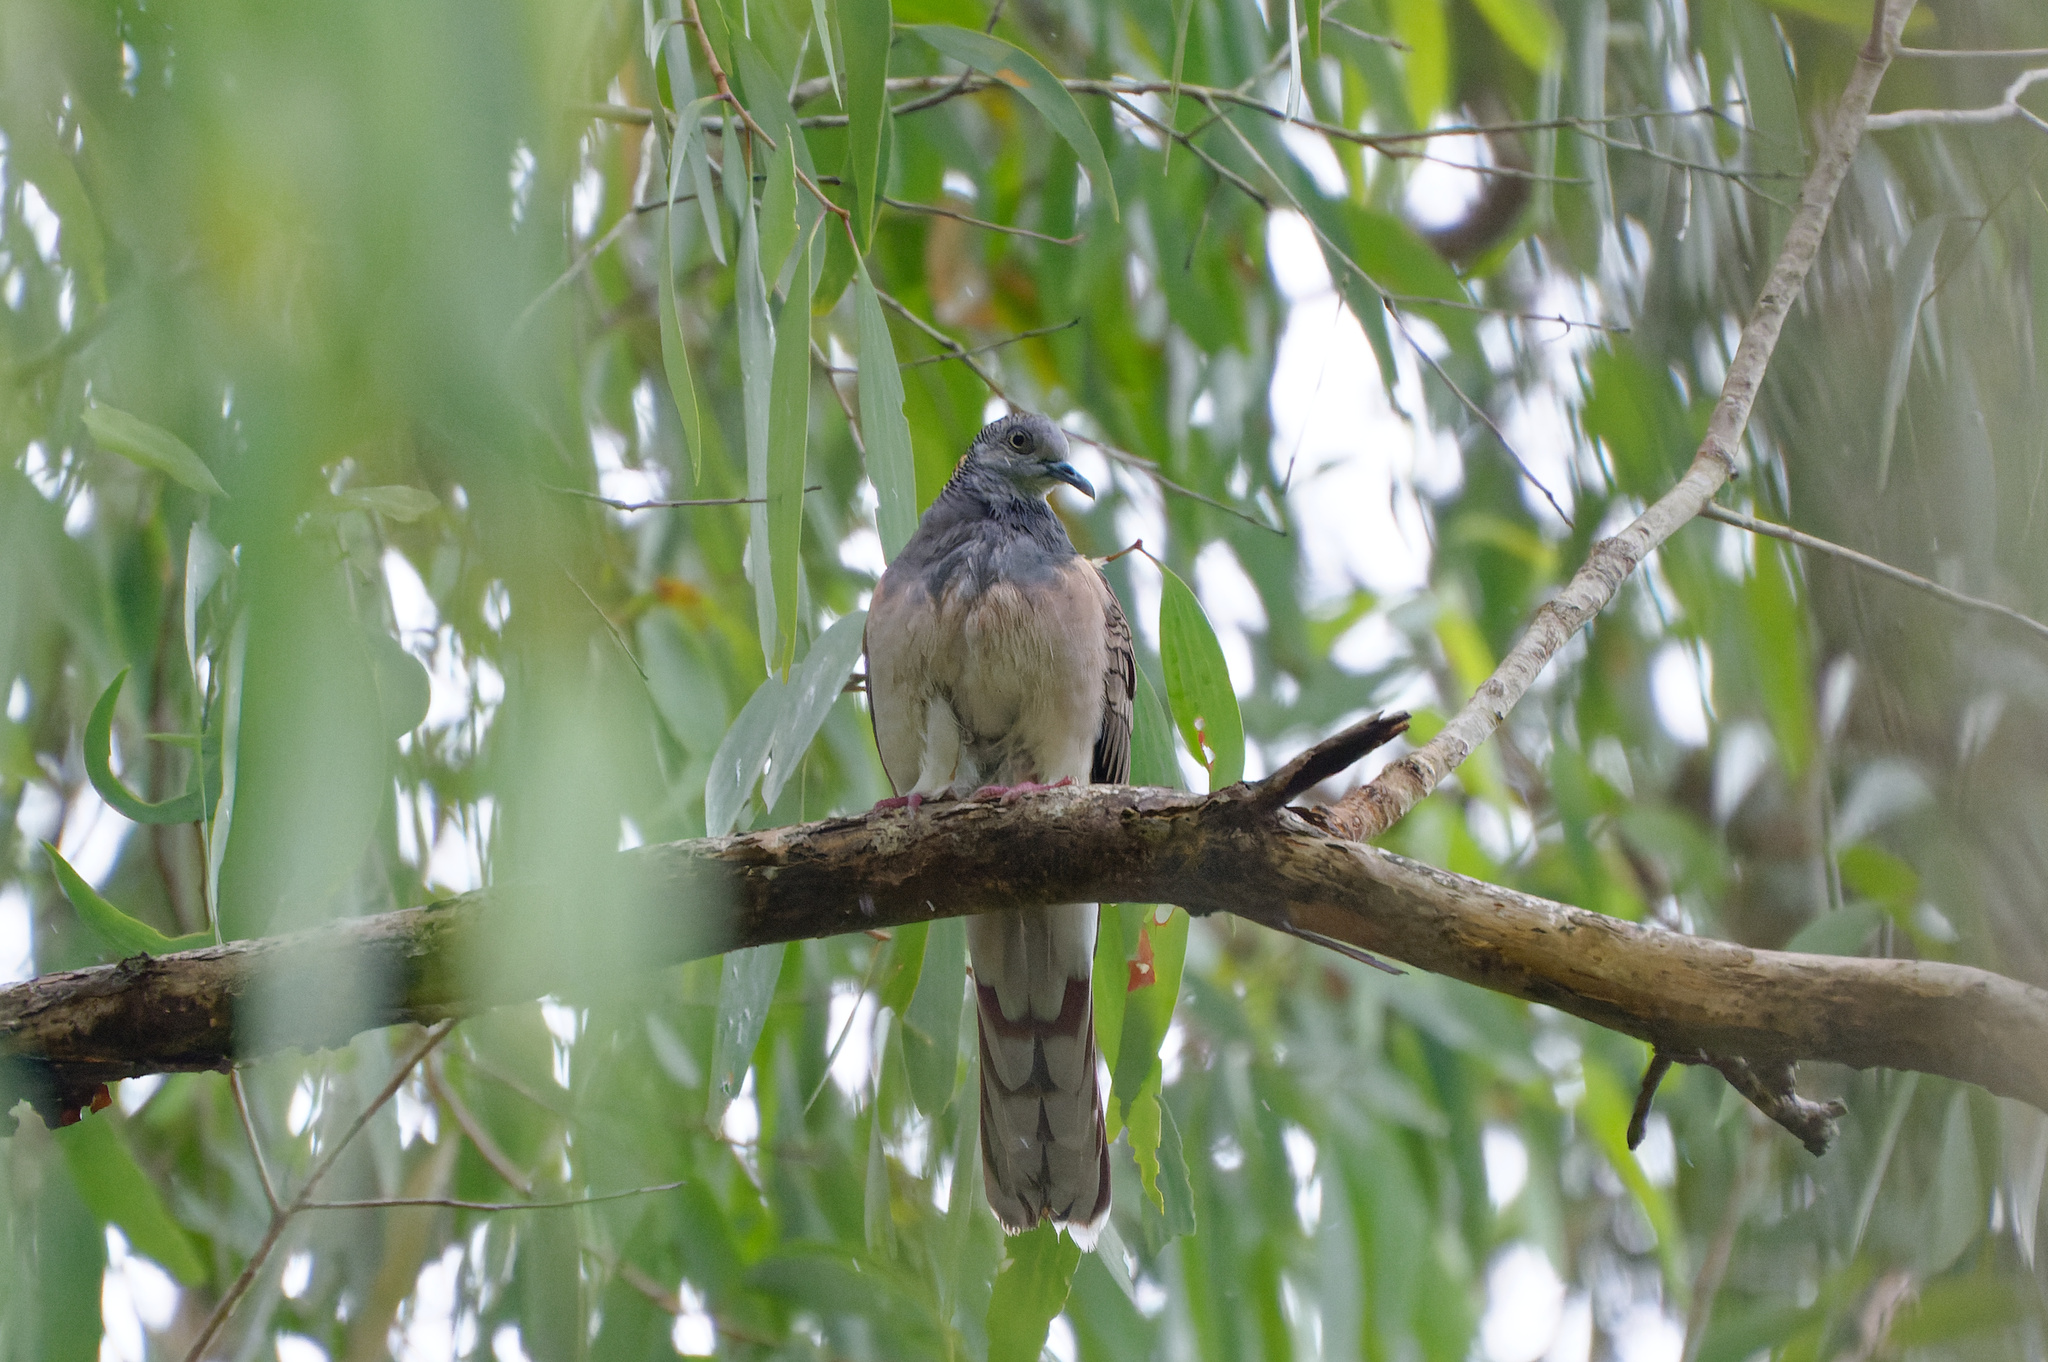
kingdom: Animalia
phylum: Chordata
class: Aves
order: Columbiformes
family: Columbidae
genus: Geopelia
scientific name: Geopelia humeralis
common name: Bar-shouldered dove
